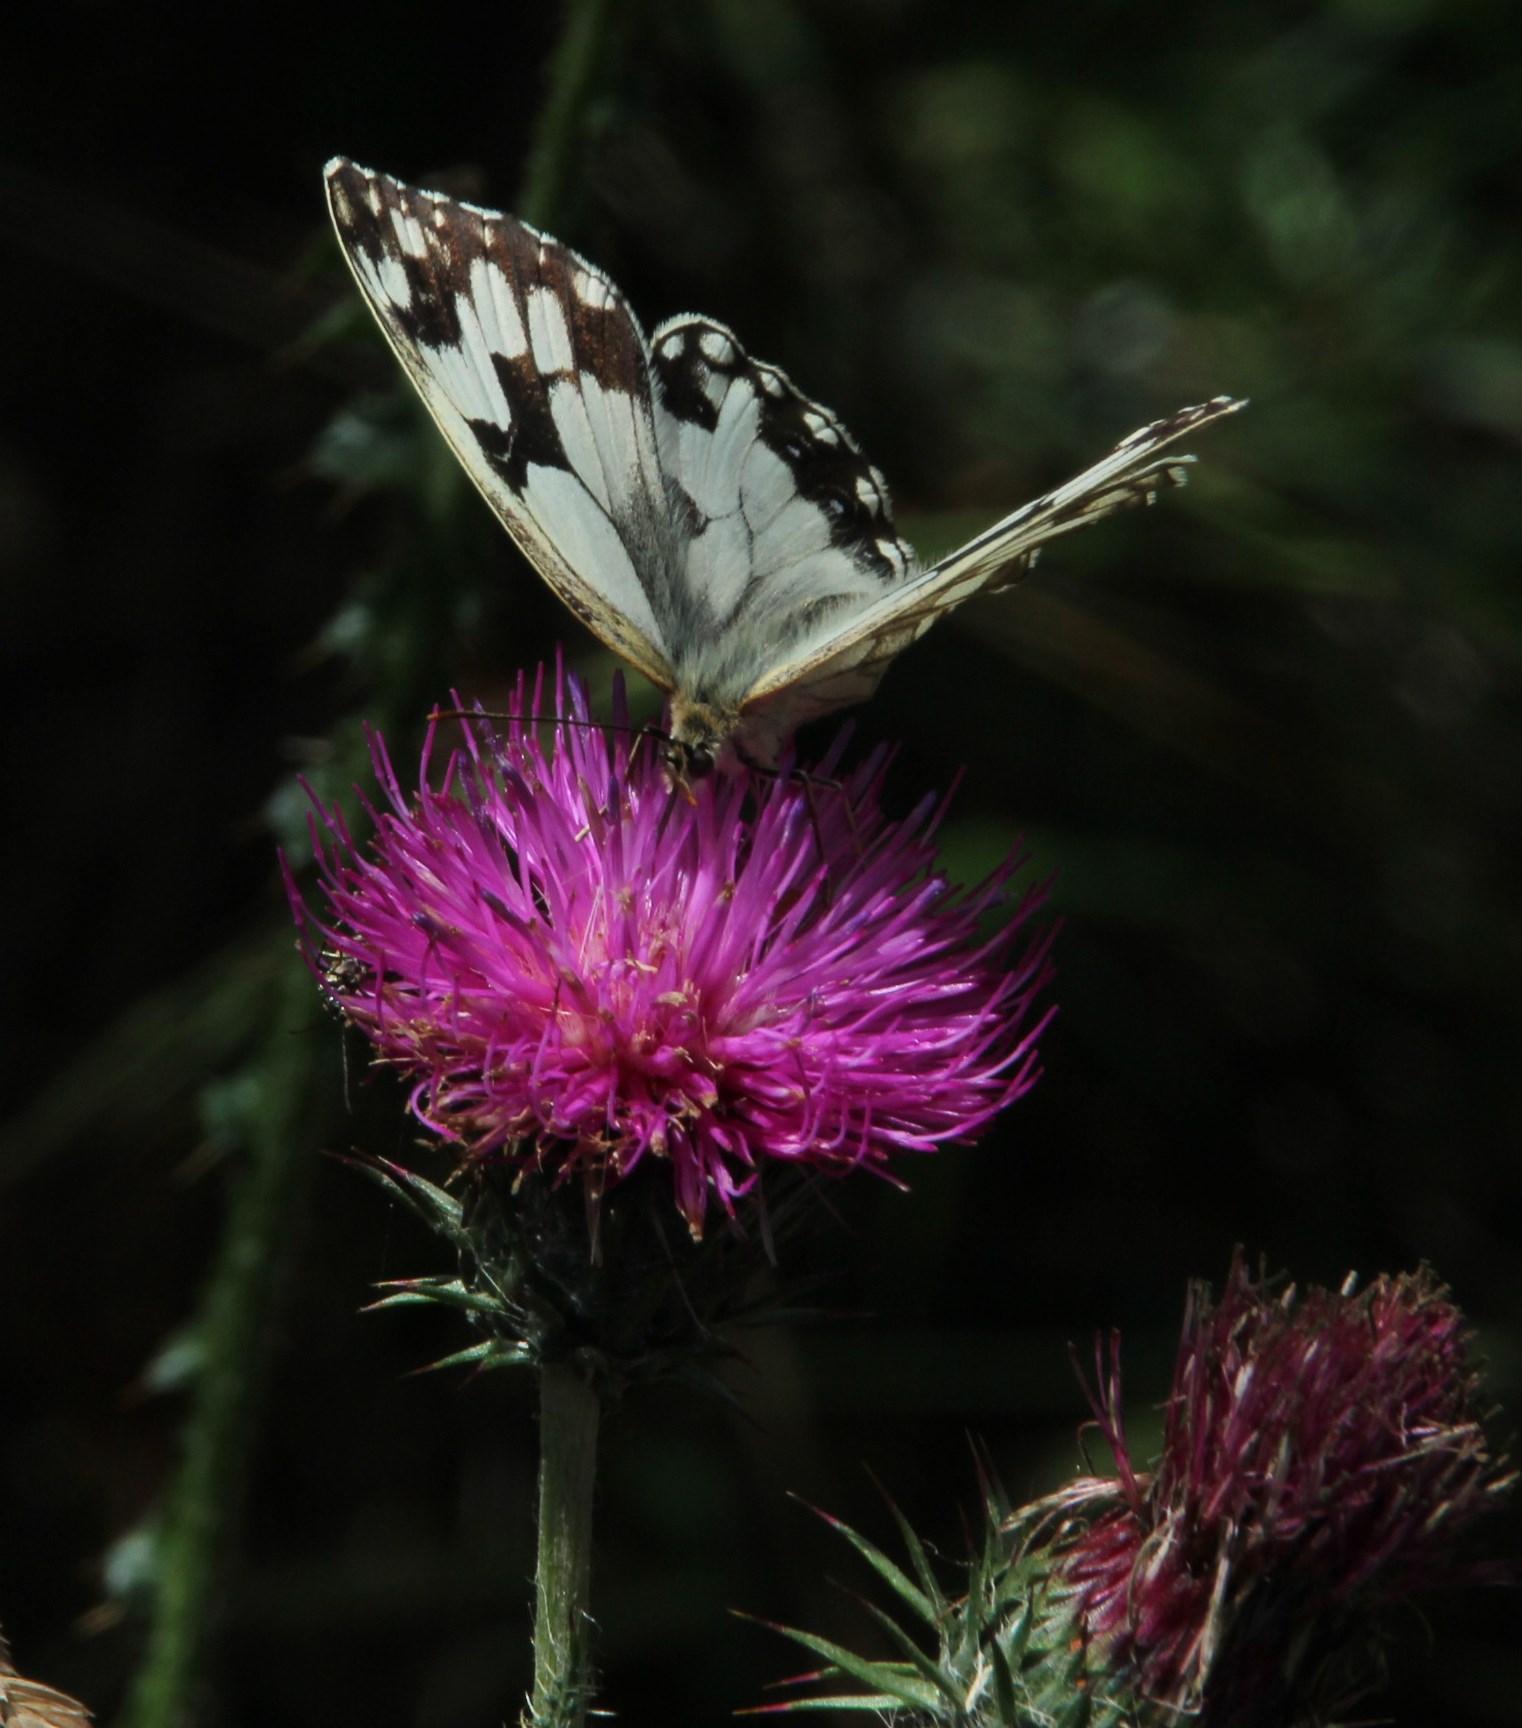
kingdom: Animalia
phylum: Arthropoda
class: Insecta
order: Lepidoptera
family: Nymphalidae
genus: Melanargia
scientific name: Melanargia lachesis
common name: Iberian marbled white
